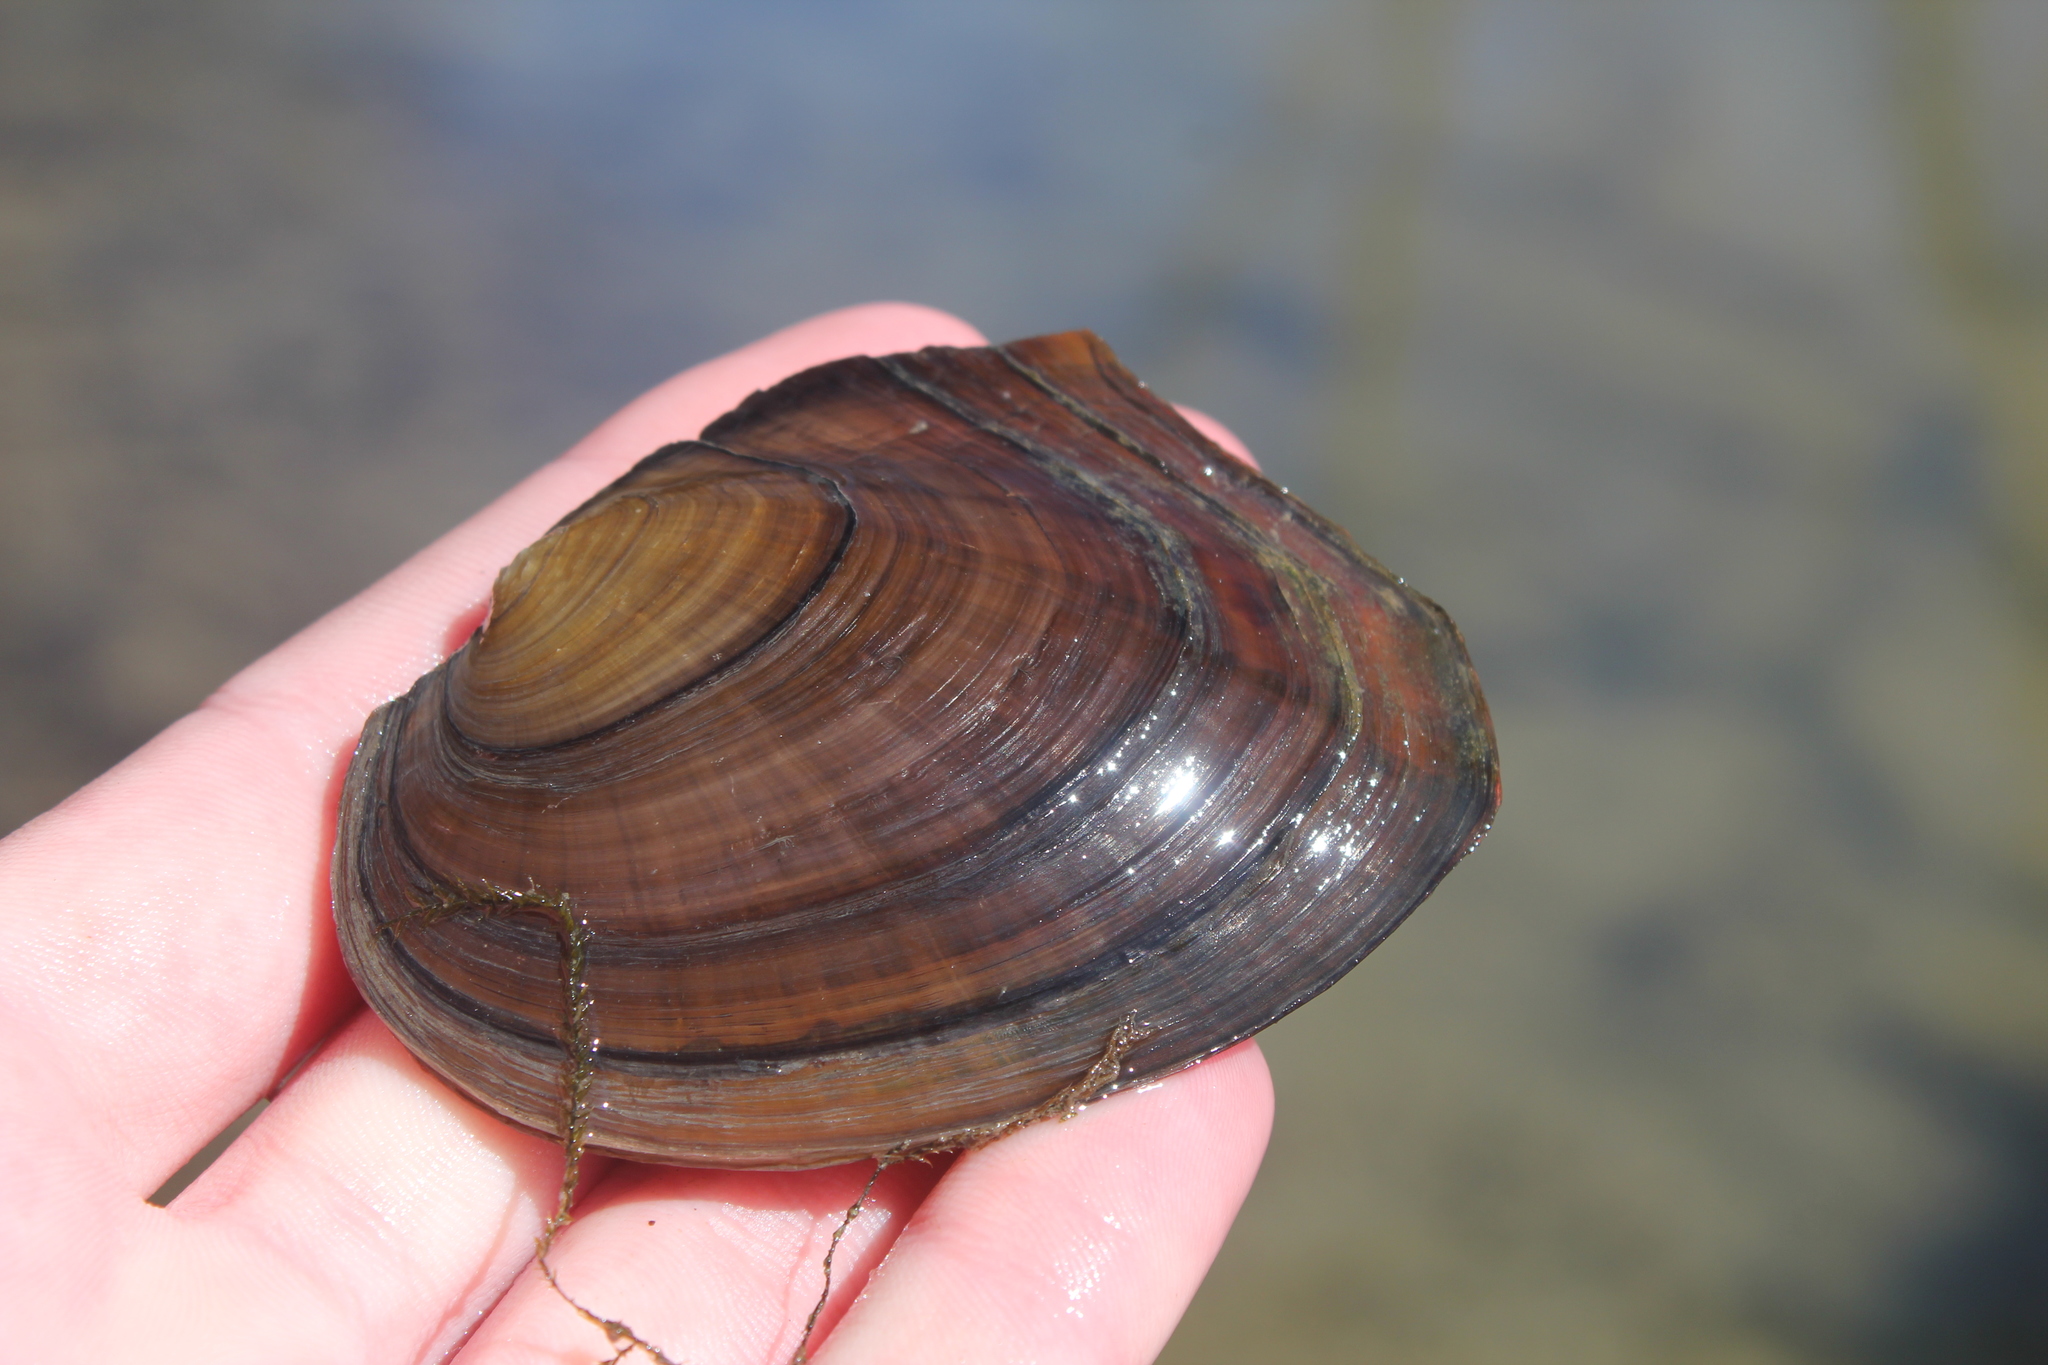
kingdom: Animalia
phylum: Mollusca
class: Bivalvia
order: Unionida
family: Unionidae
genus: Lasmigona
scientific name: Lasmigona complanata
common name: White heelsplitter
